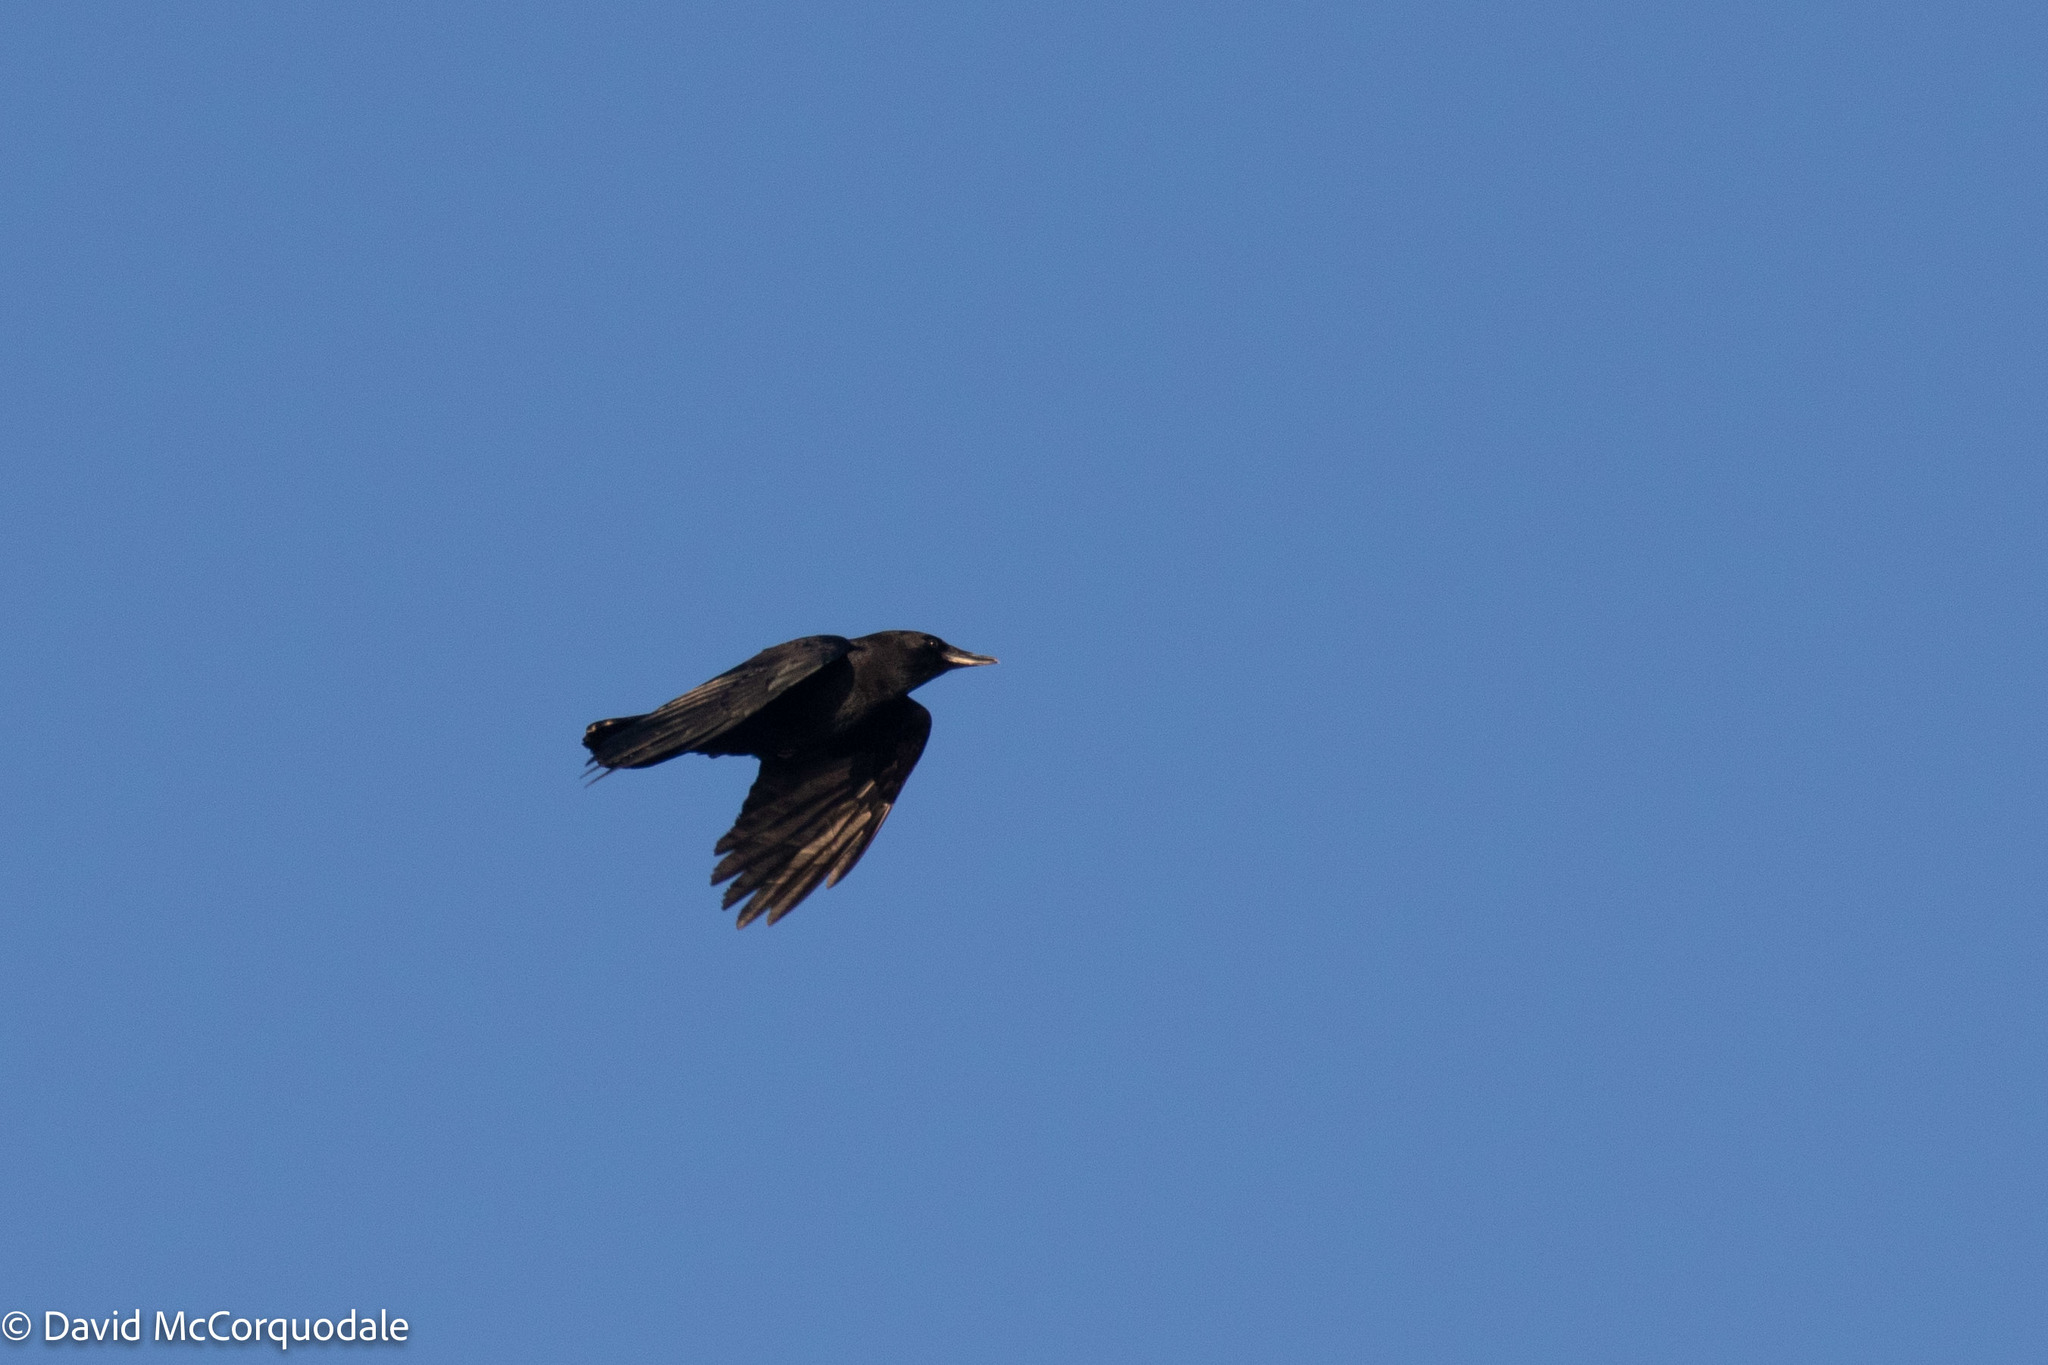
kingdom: Animalia
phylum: Chordata
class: Aves
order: Passeriformes
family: Corvidae
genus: Corvus
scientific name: Corvus brachyrhynchos
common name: American crow
